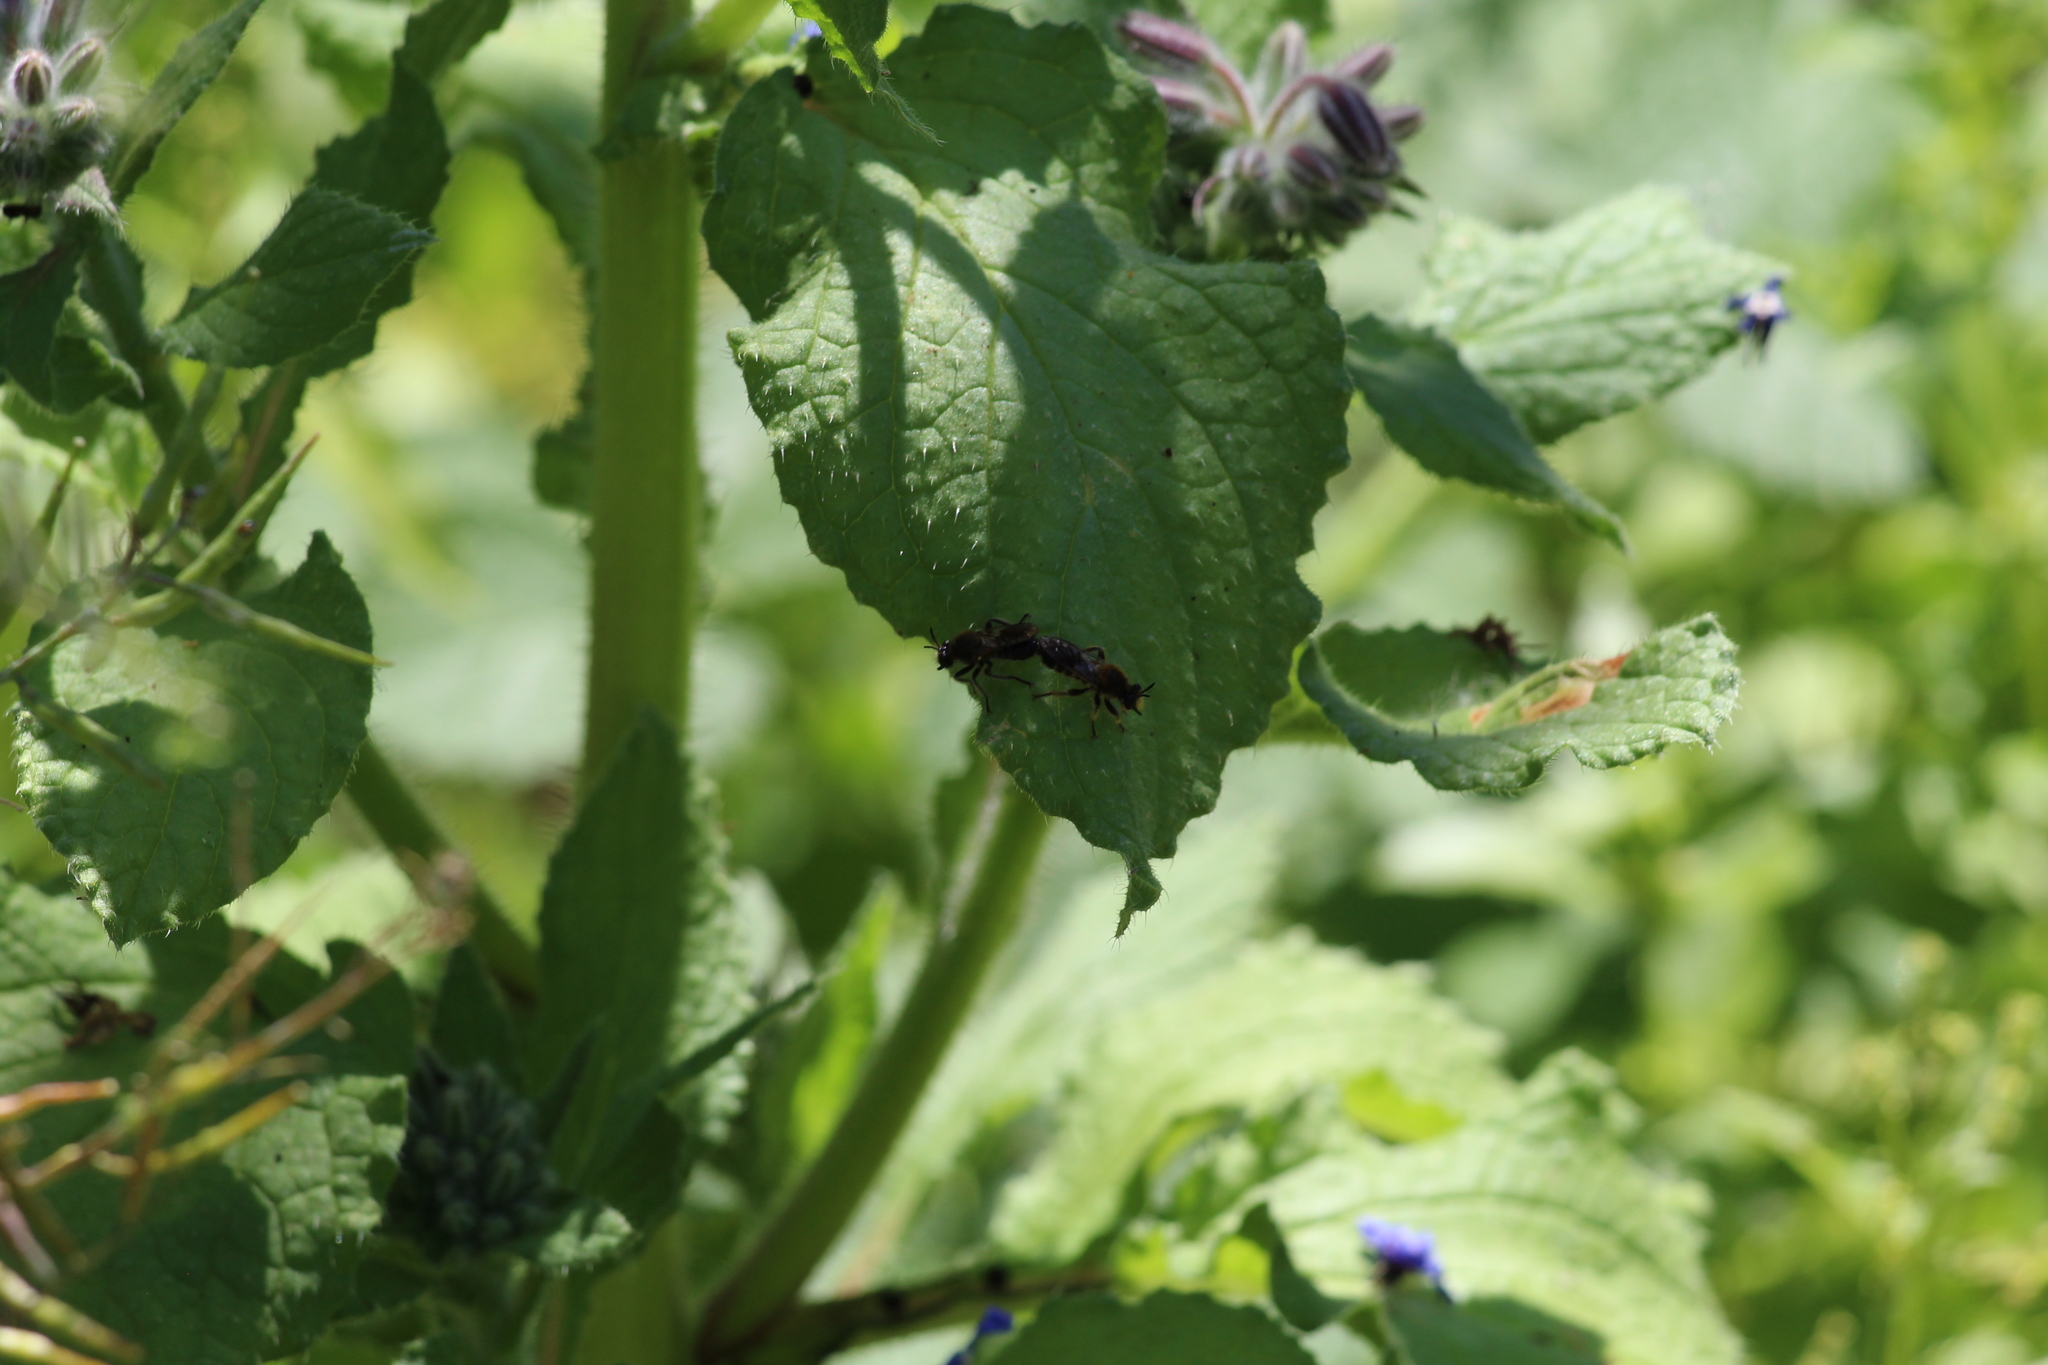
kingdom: Animalia
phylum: Arthropoda
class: Insecta
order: Diptera
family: Asilidae
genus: Lamyra
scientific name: Lamyra fuliginosa
